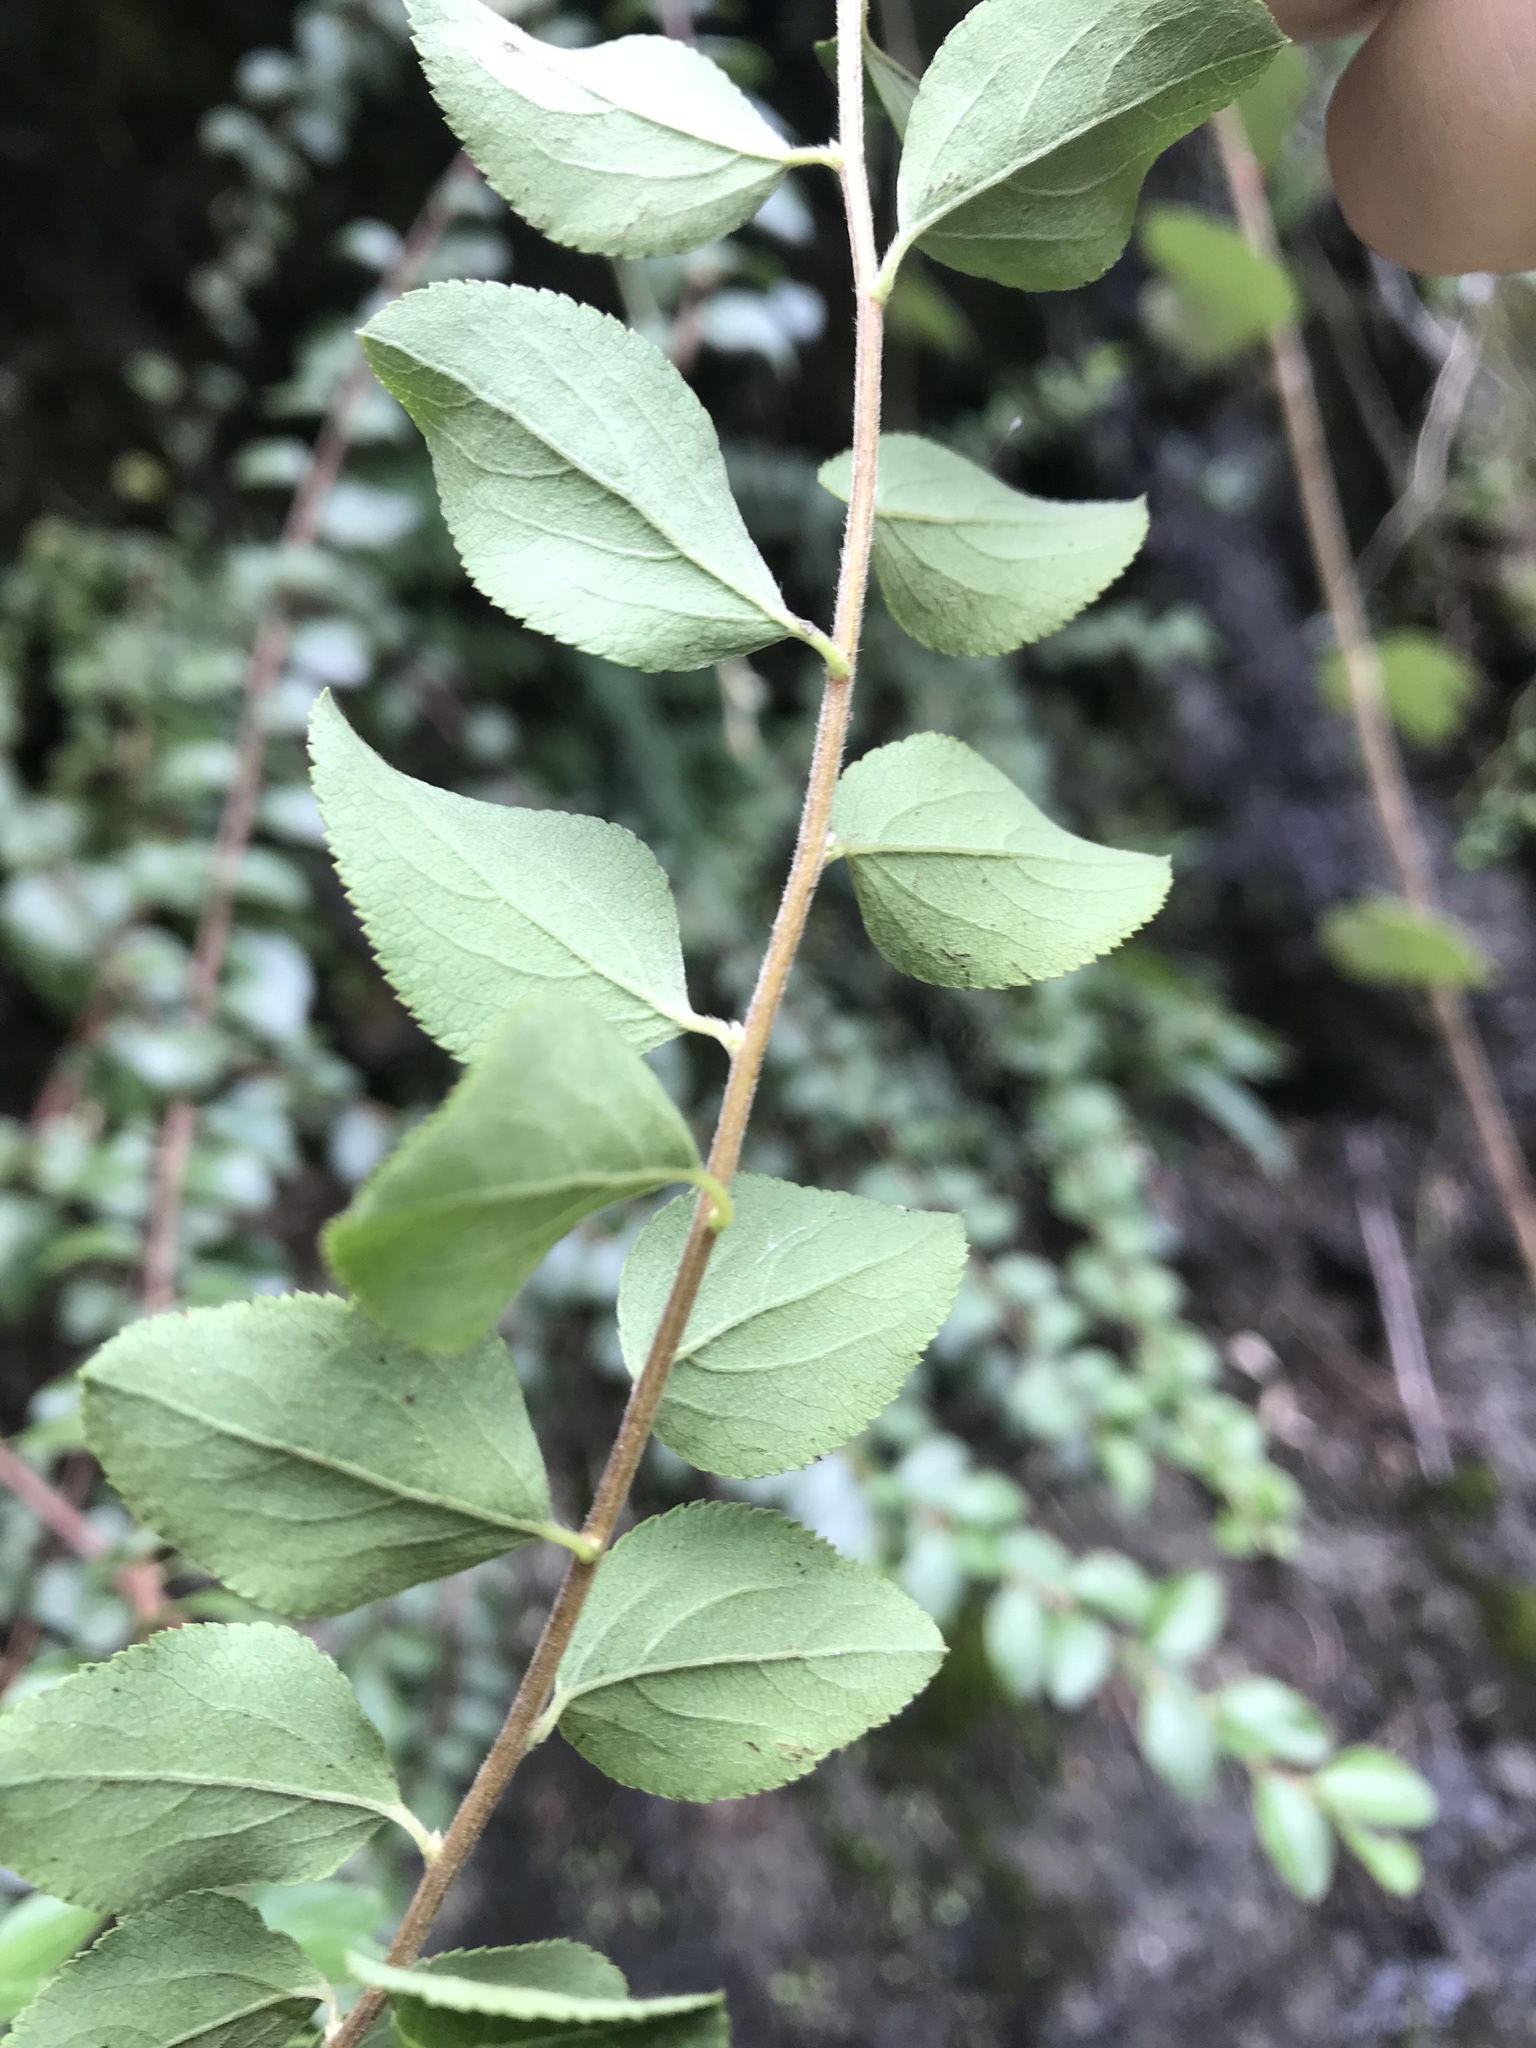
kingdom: Plantae
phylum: Tracheophyta
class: Magnoliopsida
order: Rosales
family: Rosaceae
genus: Spiraea
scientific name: Spiraea prunifolia
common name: Bridal-wreath spiraea
